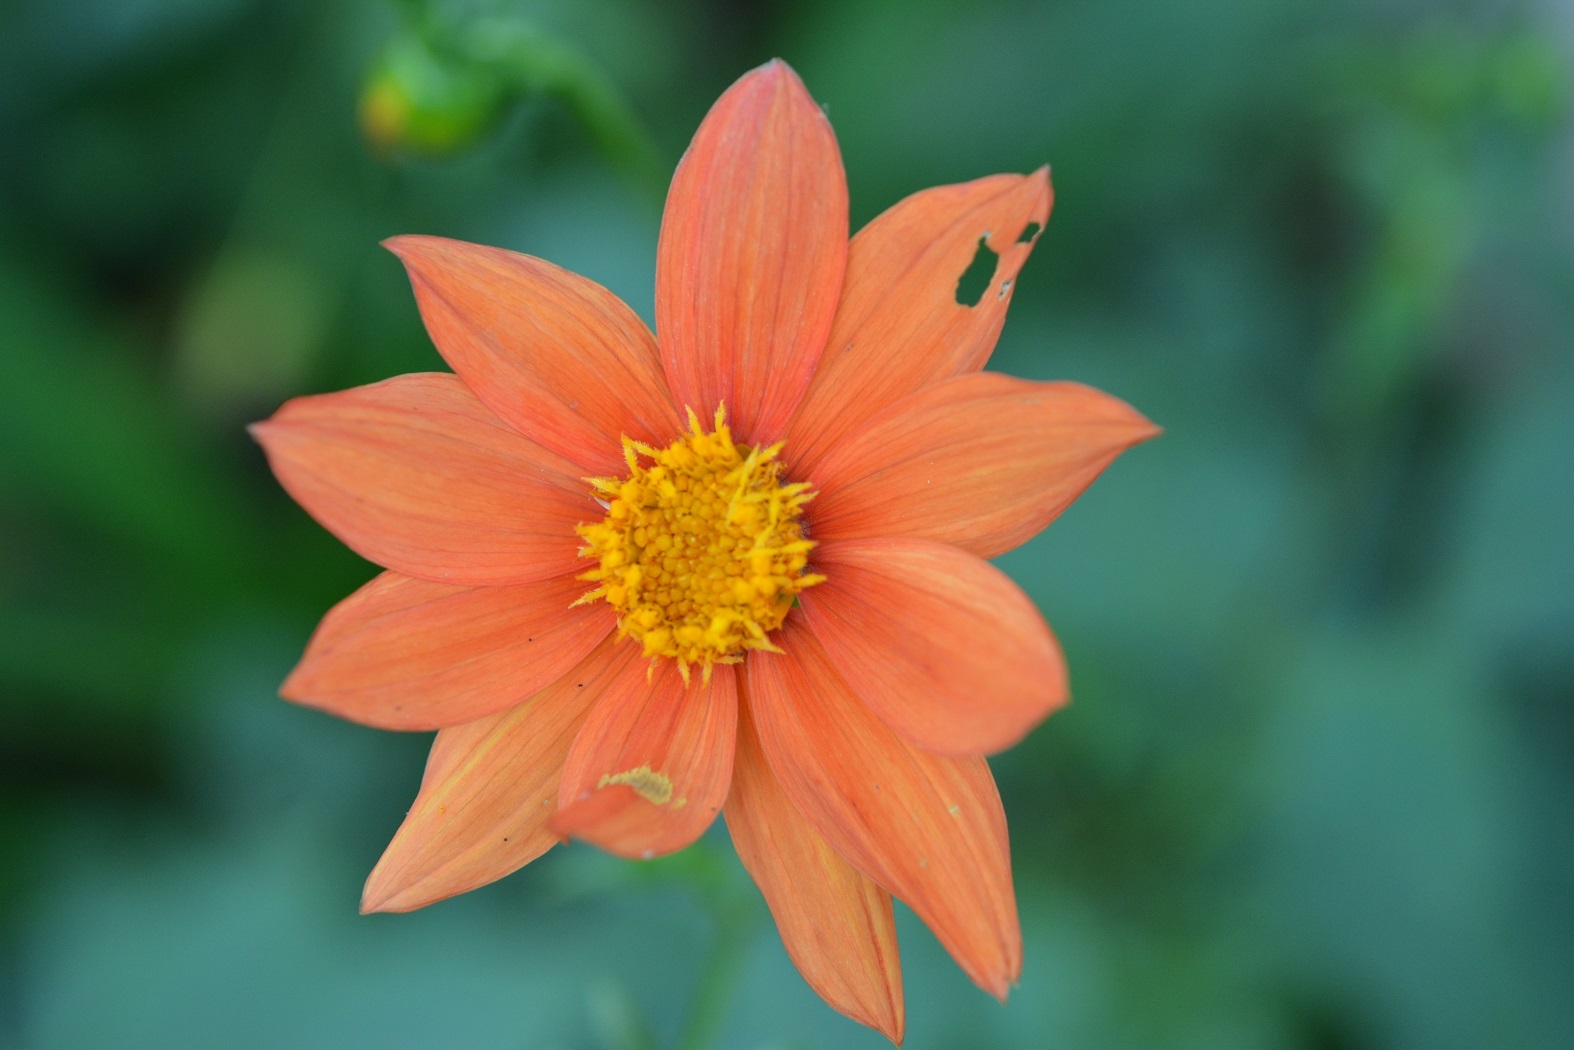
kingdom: Plantae
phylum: Tracheophyta
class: Magnoliopsida
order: Asterales
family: Asteraceae
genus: Dahlia
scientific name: Dahlia coccinea
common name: Red dahlia
